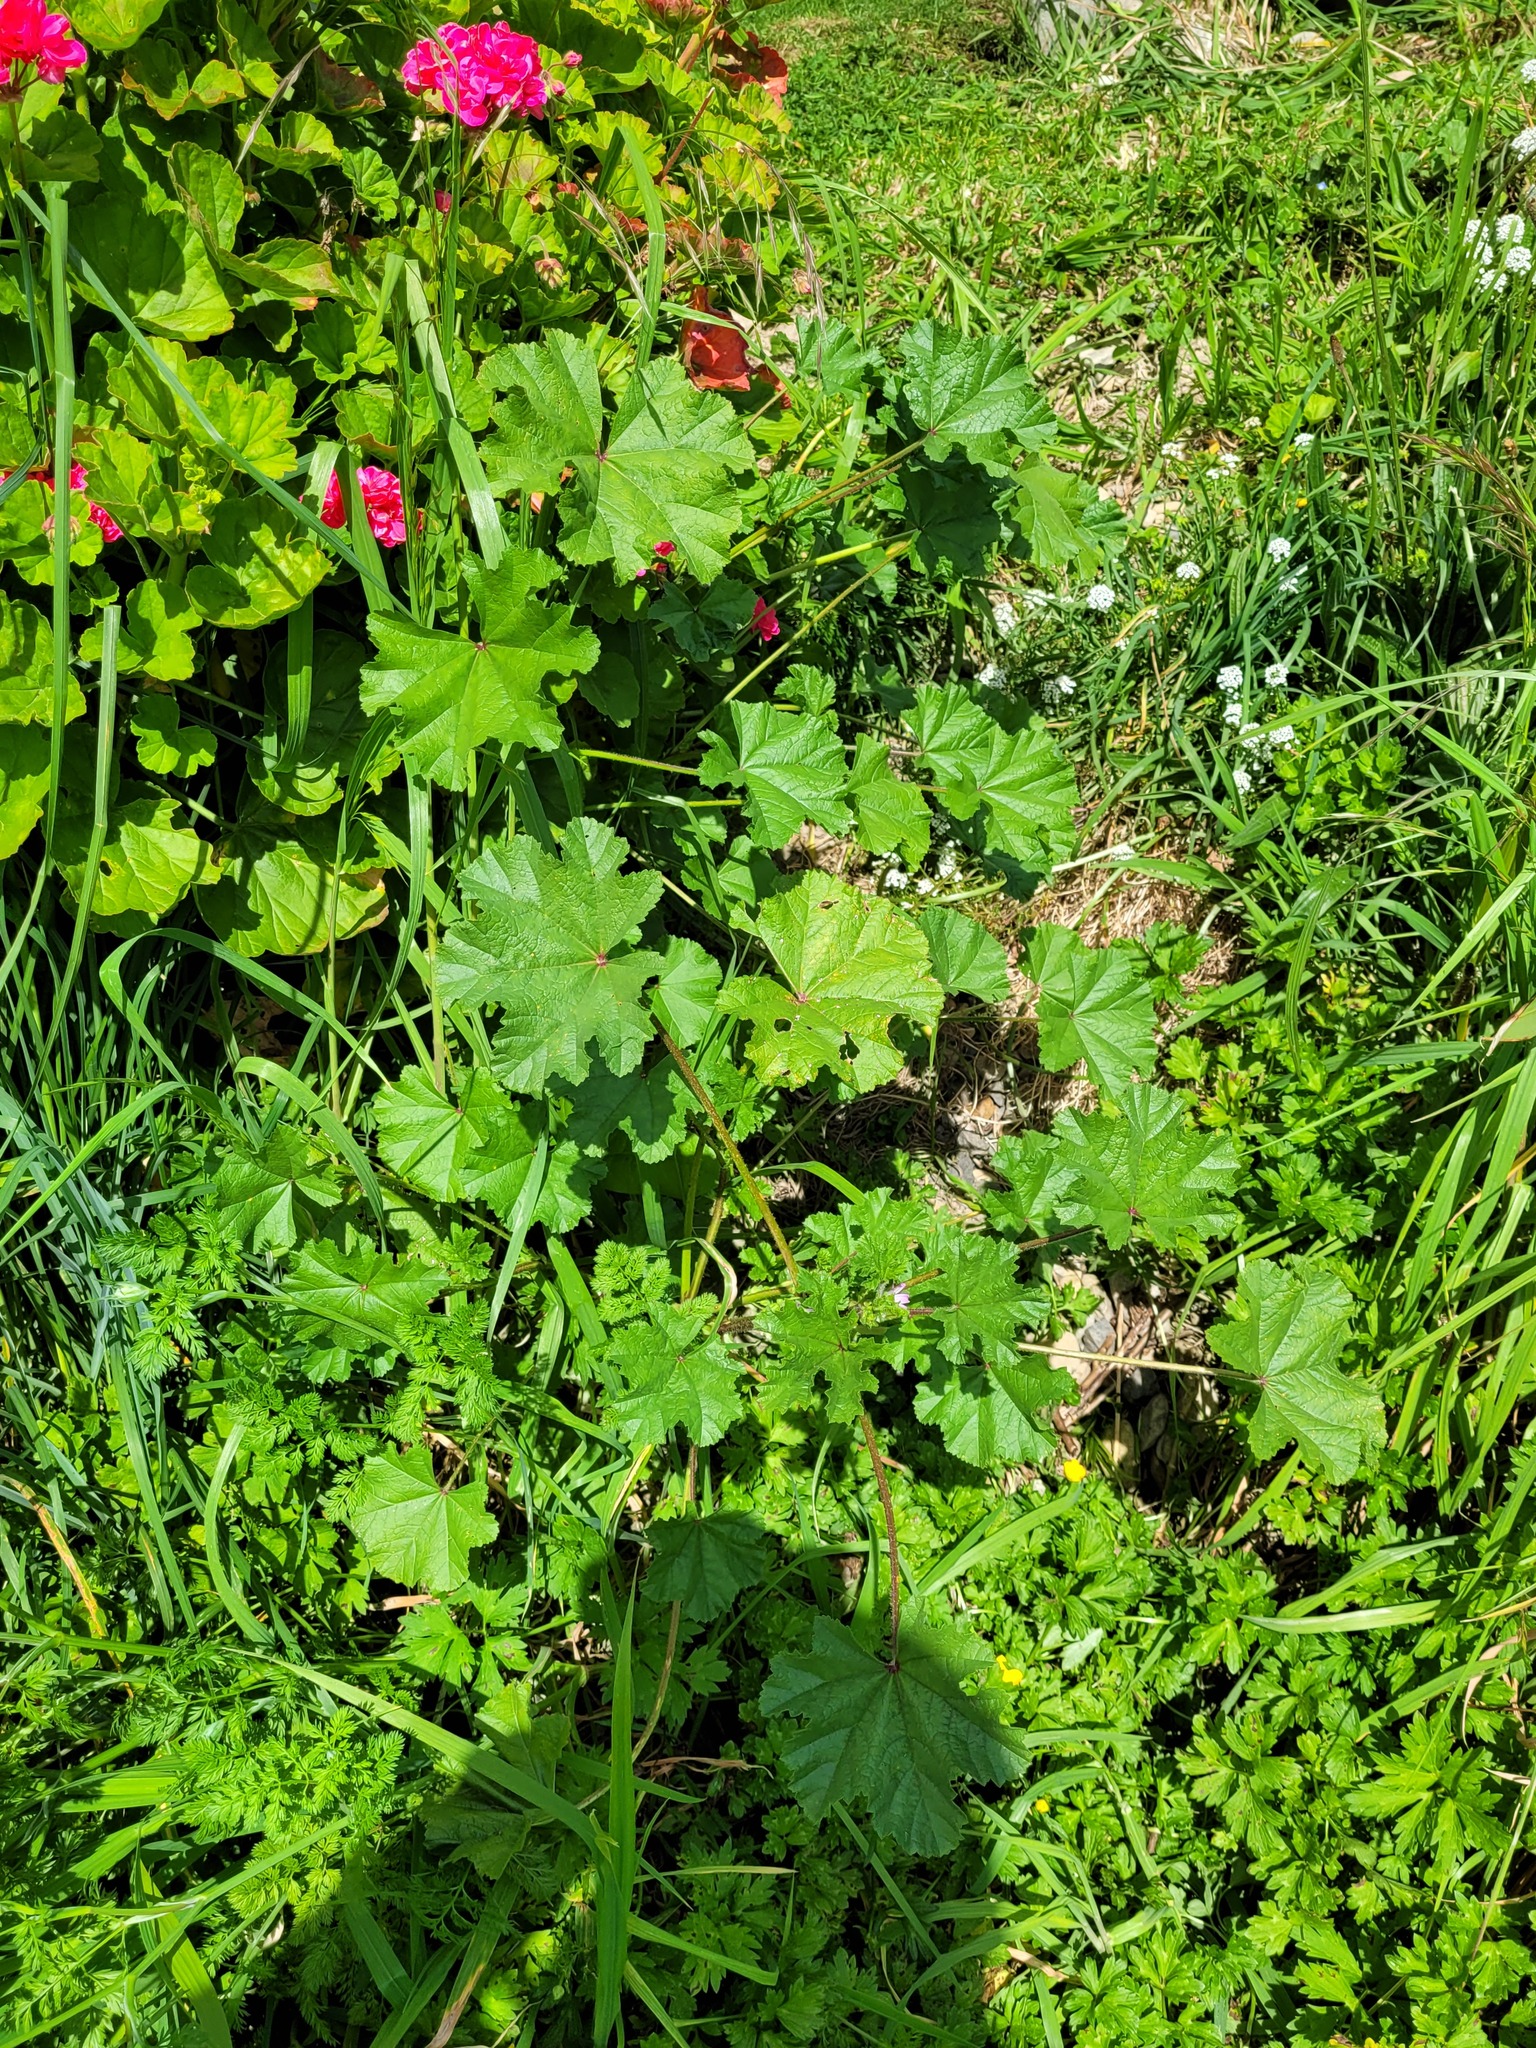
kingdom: Plantae
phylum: Tracheophyta
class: Magnoliopsida
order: Malvales
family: Malvaceae
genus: Malva
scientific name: Malva nicaeensis
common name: French mallow
